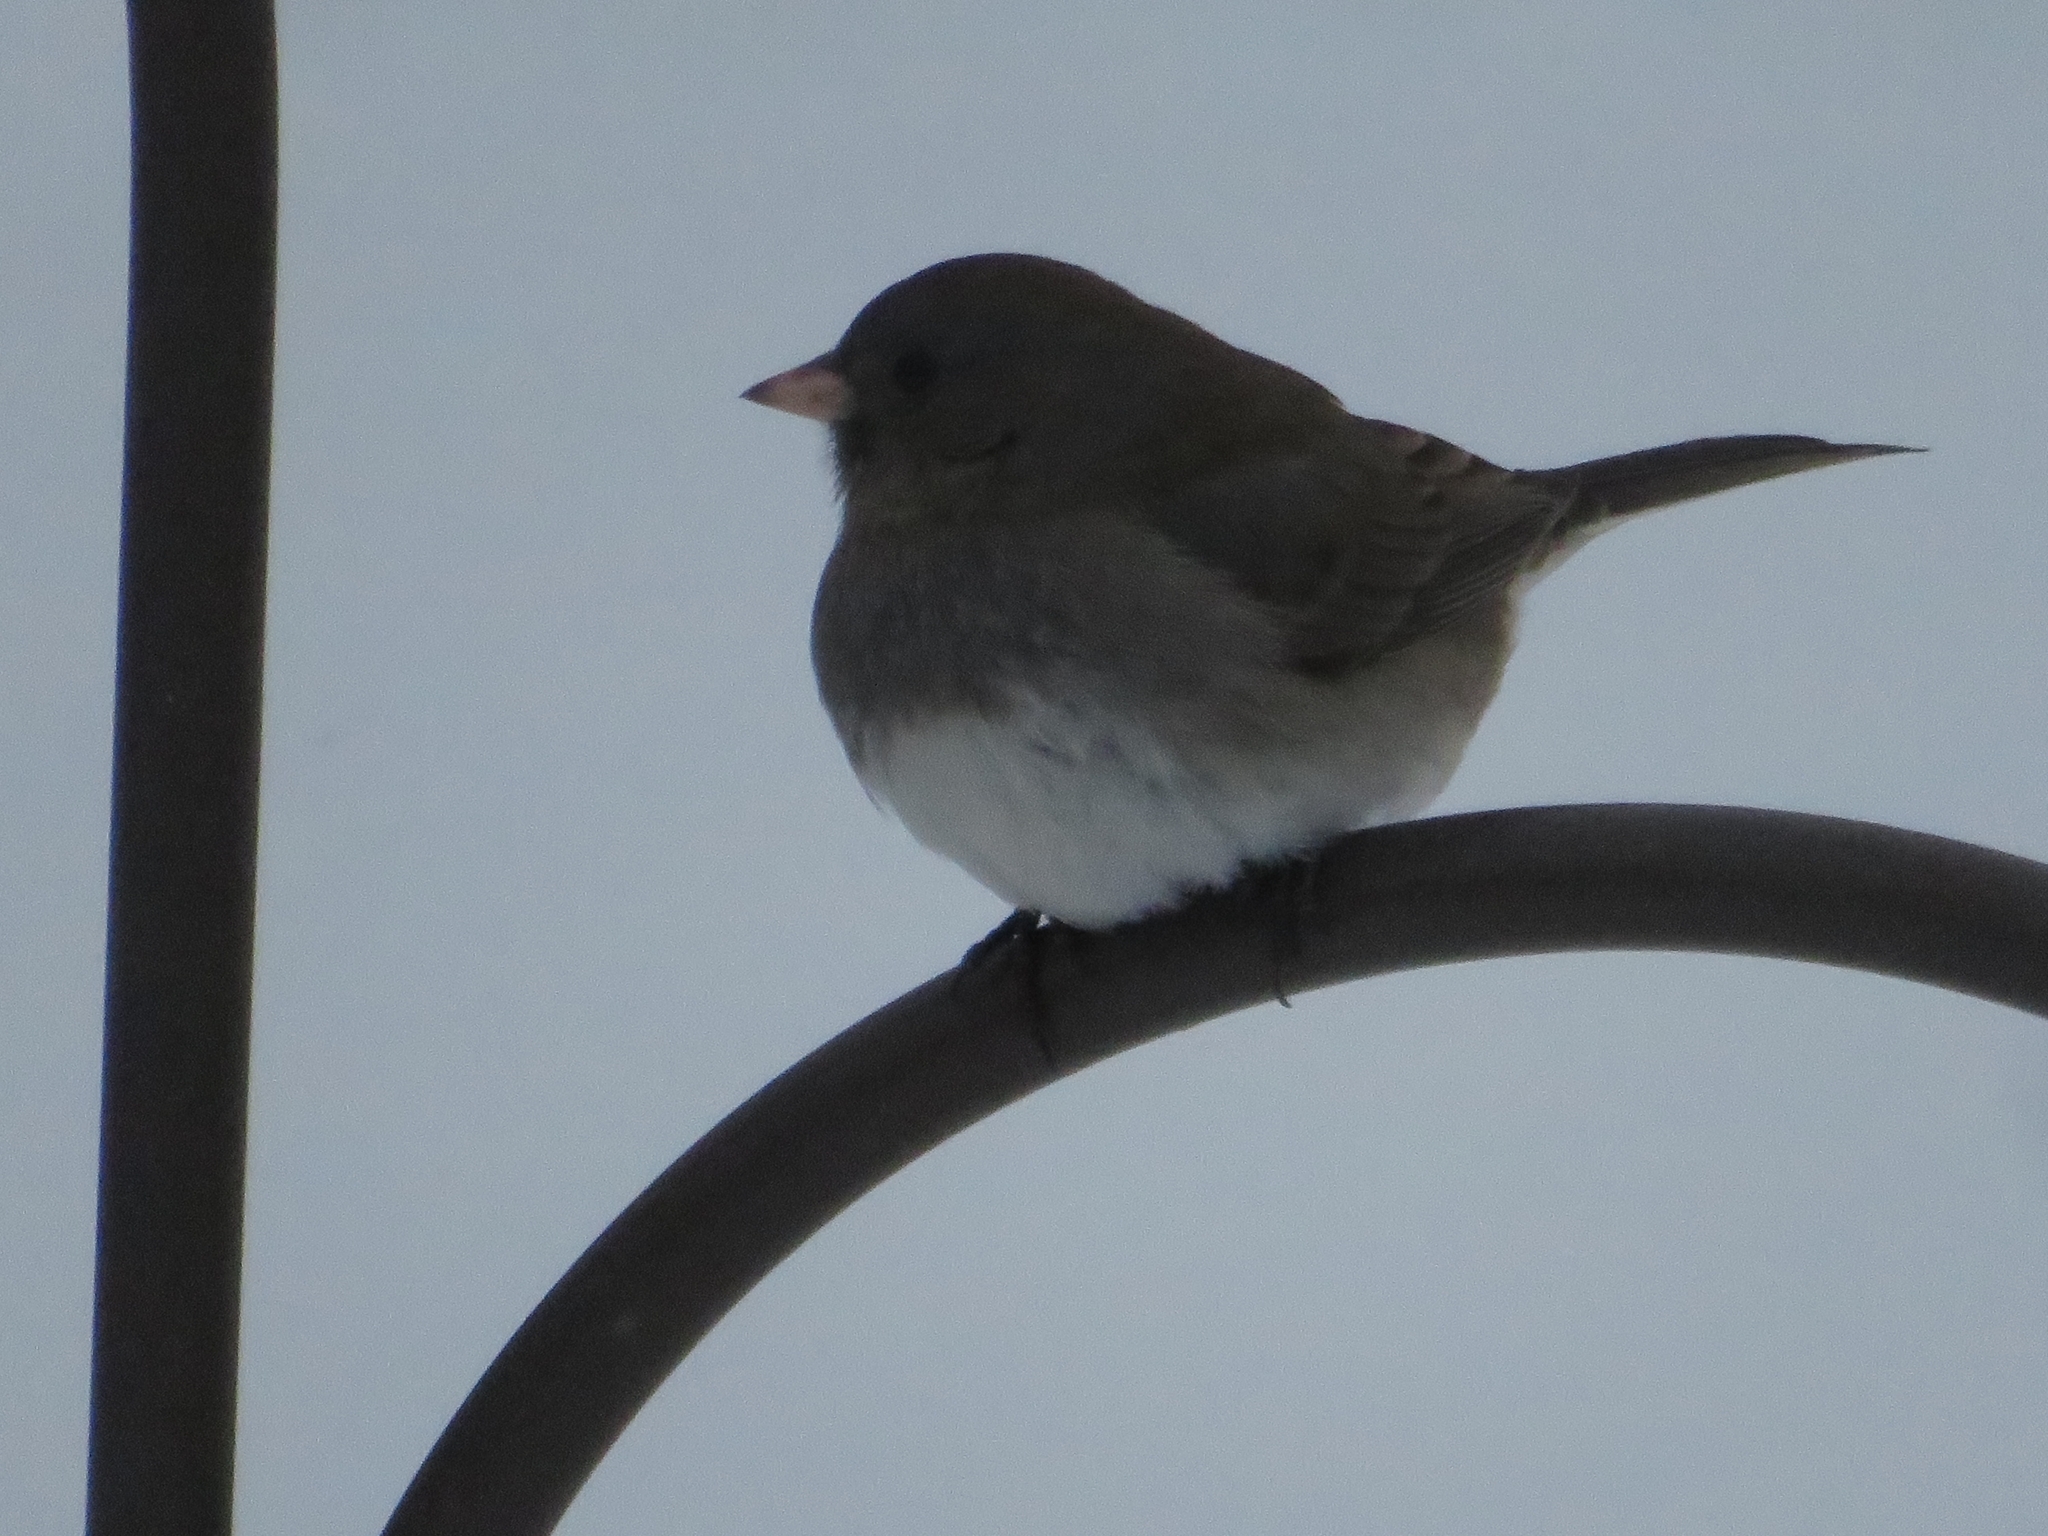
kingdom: Animalia
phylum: Chordata
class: Aves
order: Passeriformes
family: Passerellidae
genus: Junco
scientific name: Junco hyemalis
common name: Dark-eyed junco
